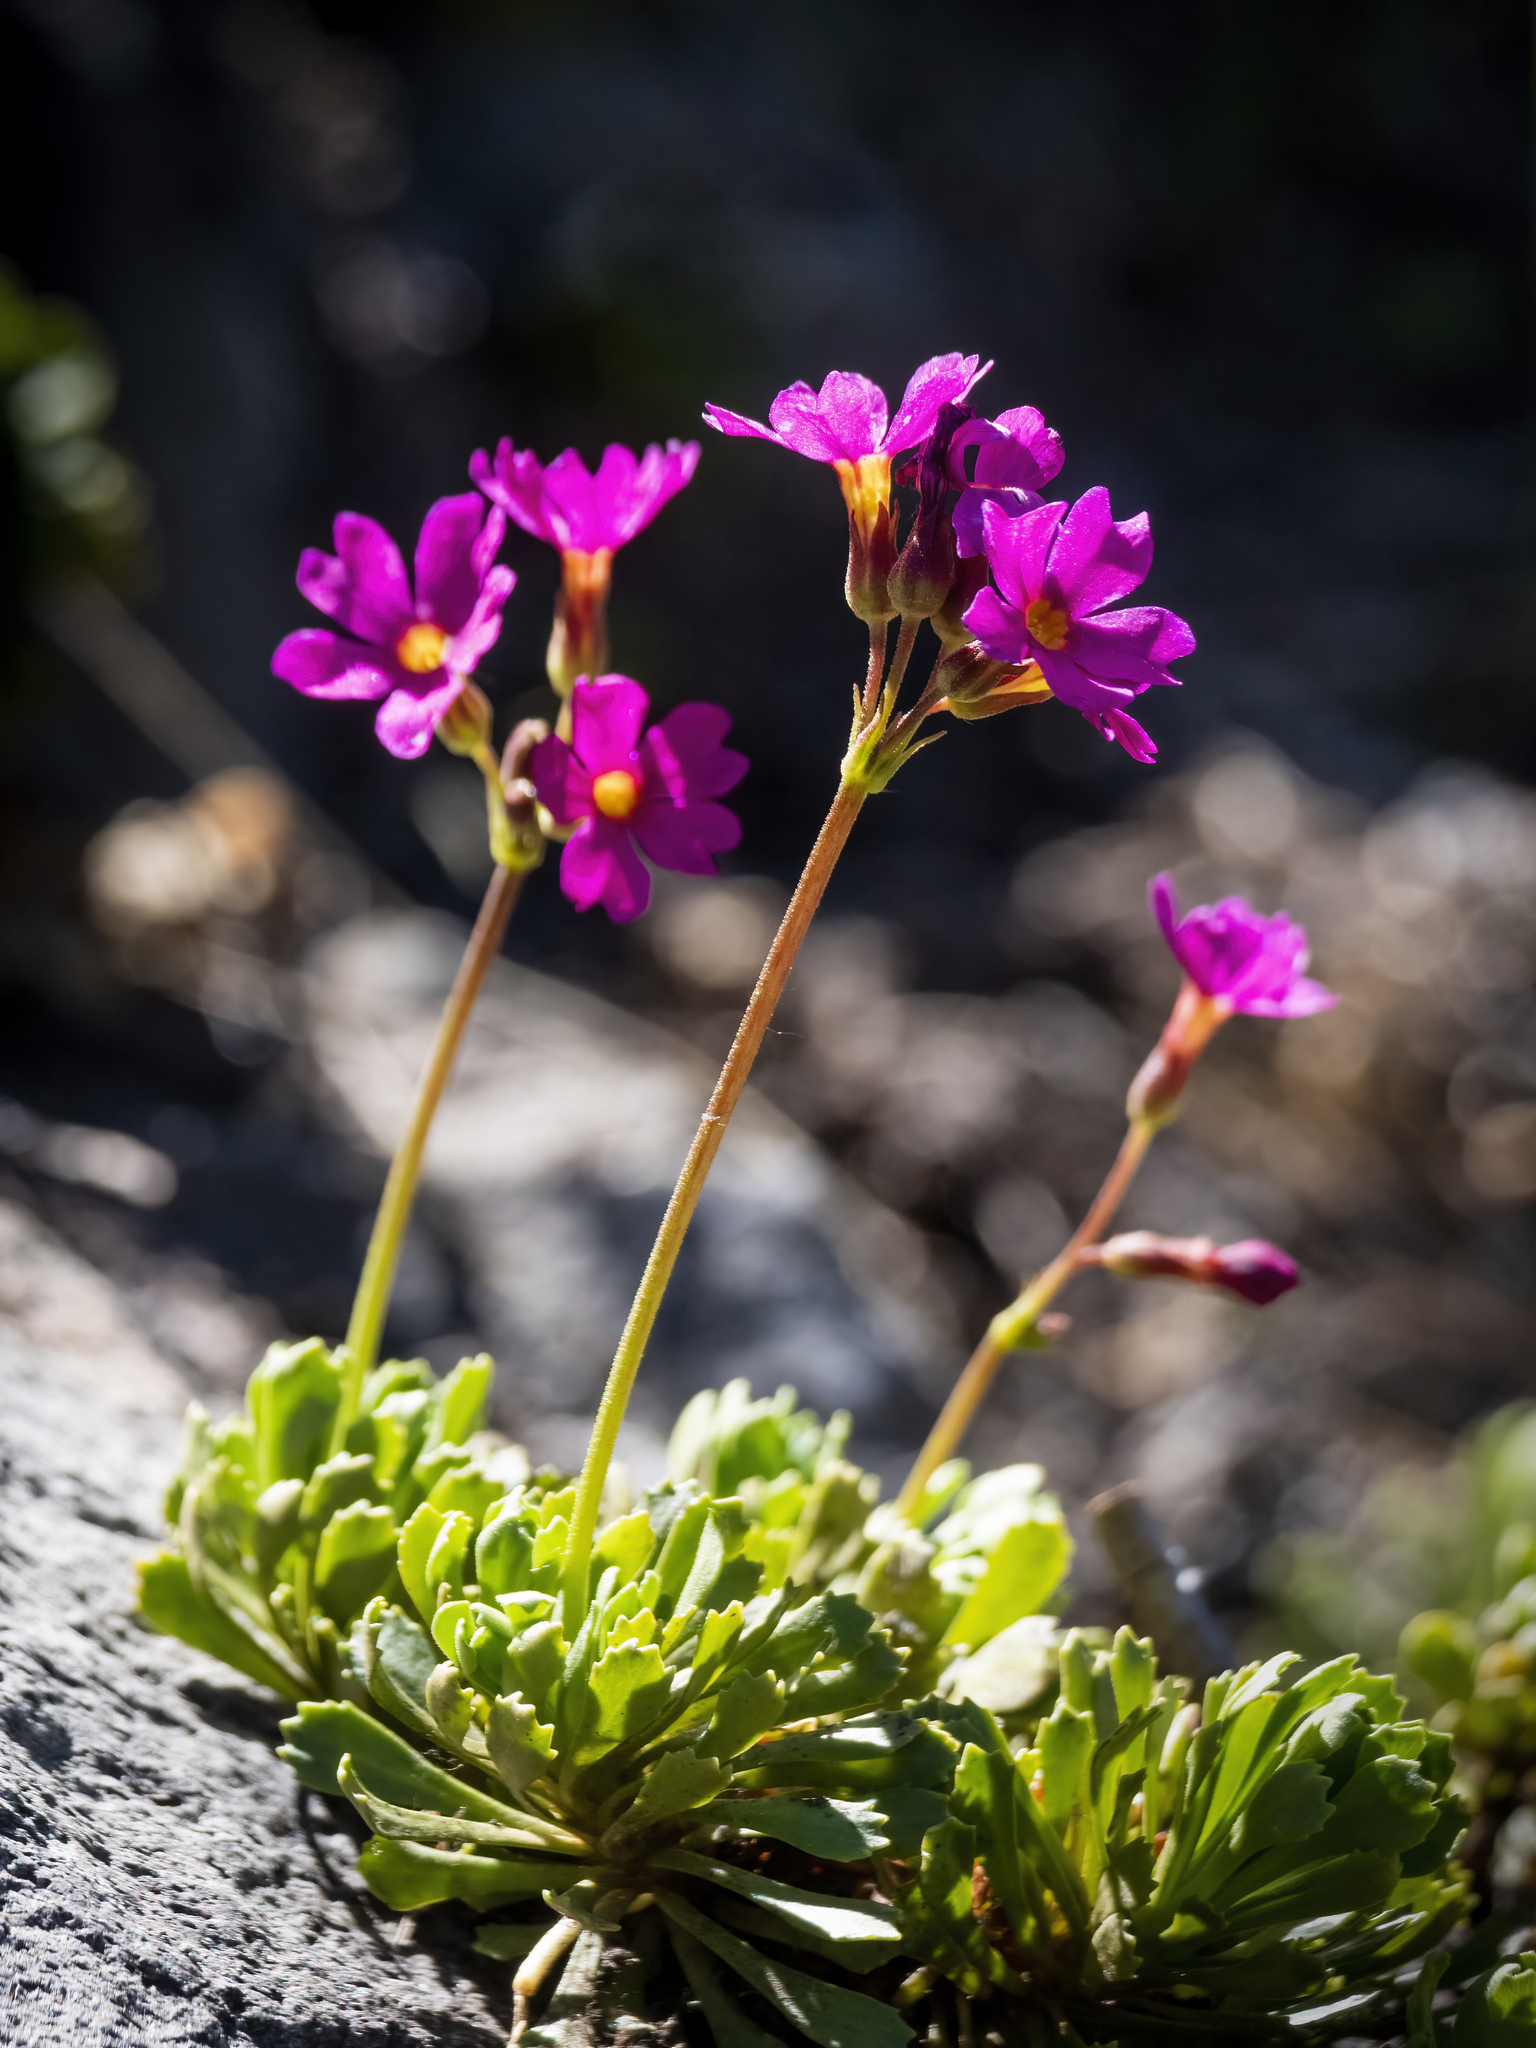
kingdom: Plantae
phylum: Tracheophyta
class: Magnoliopsida
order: Ericales
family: Primulaceae
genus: Primula
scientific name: Primula suffrutescens
